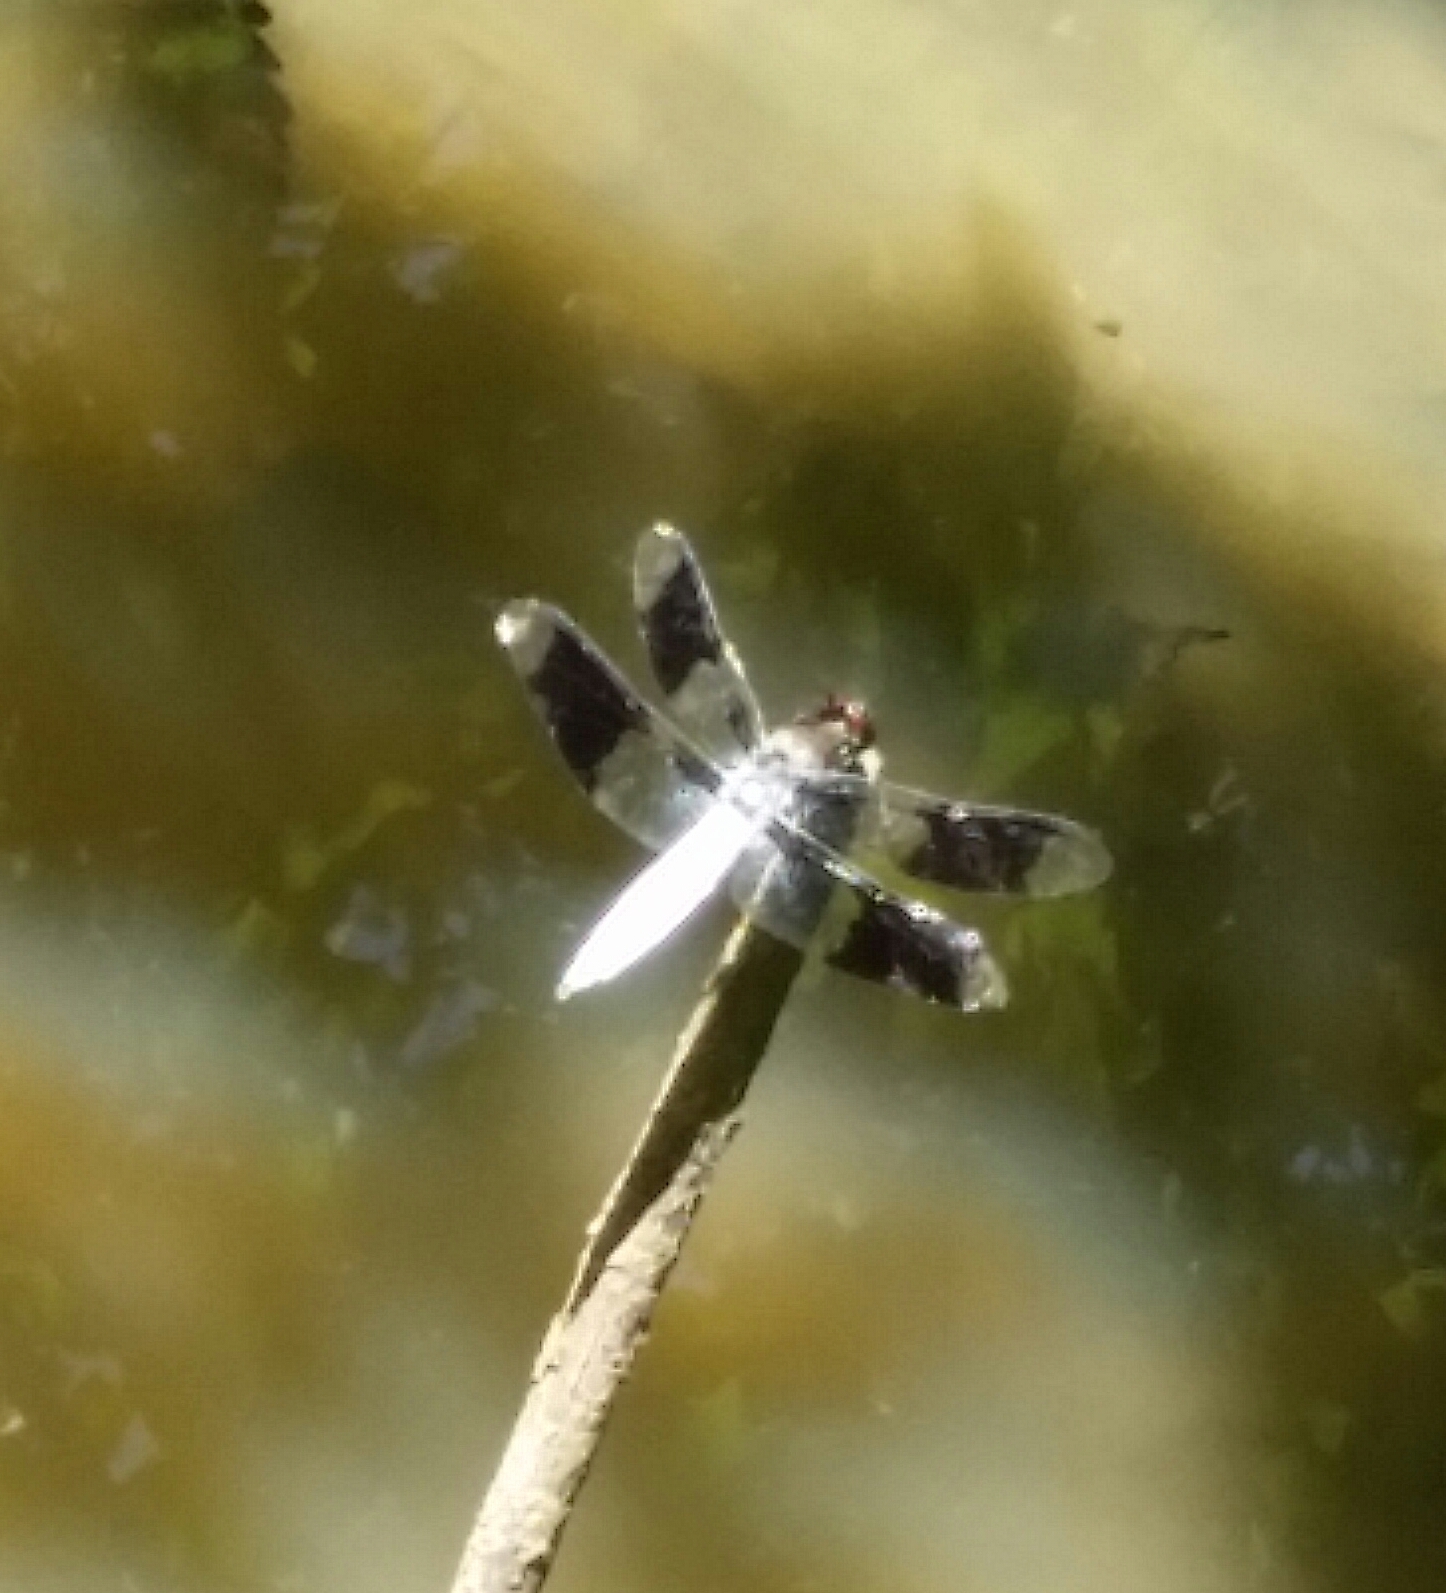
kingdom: Animalia
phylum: Arthropoda
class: Insecta
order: Odonata
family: Libellulidae
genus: Plathemis
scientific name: Plathemis lydia
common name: Common whitetail
